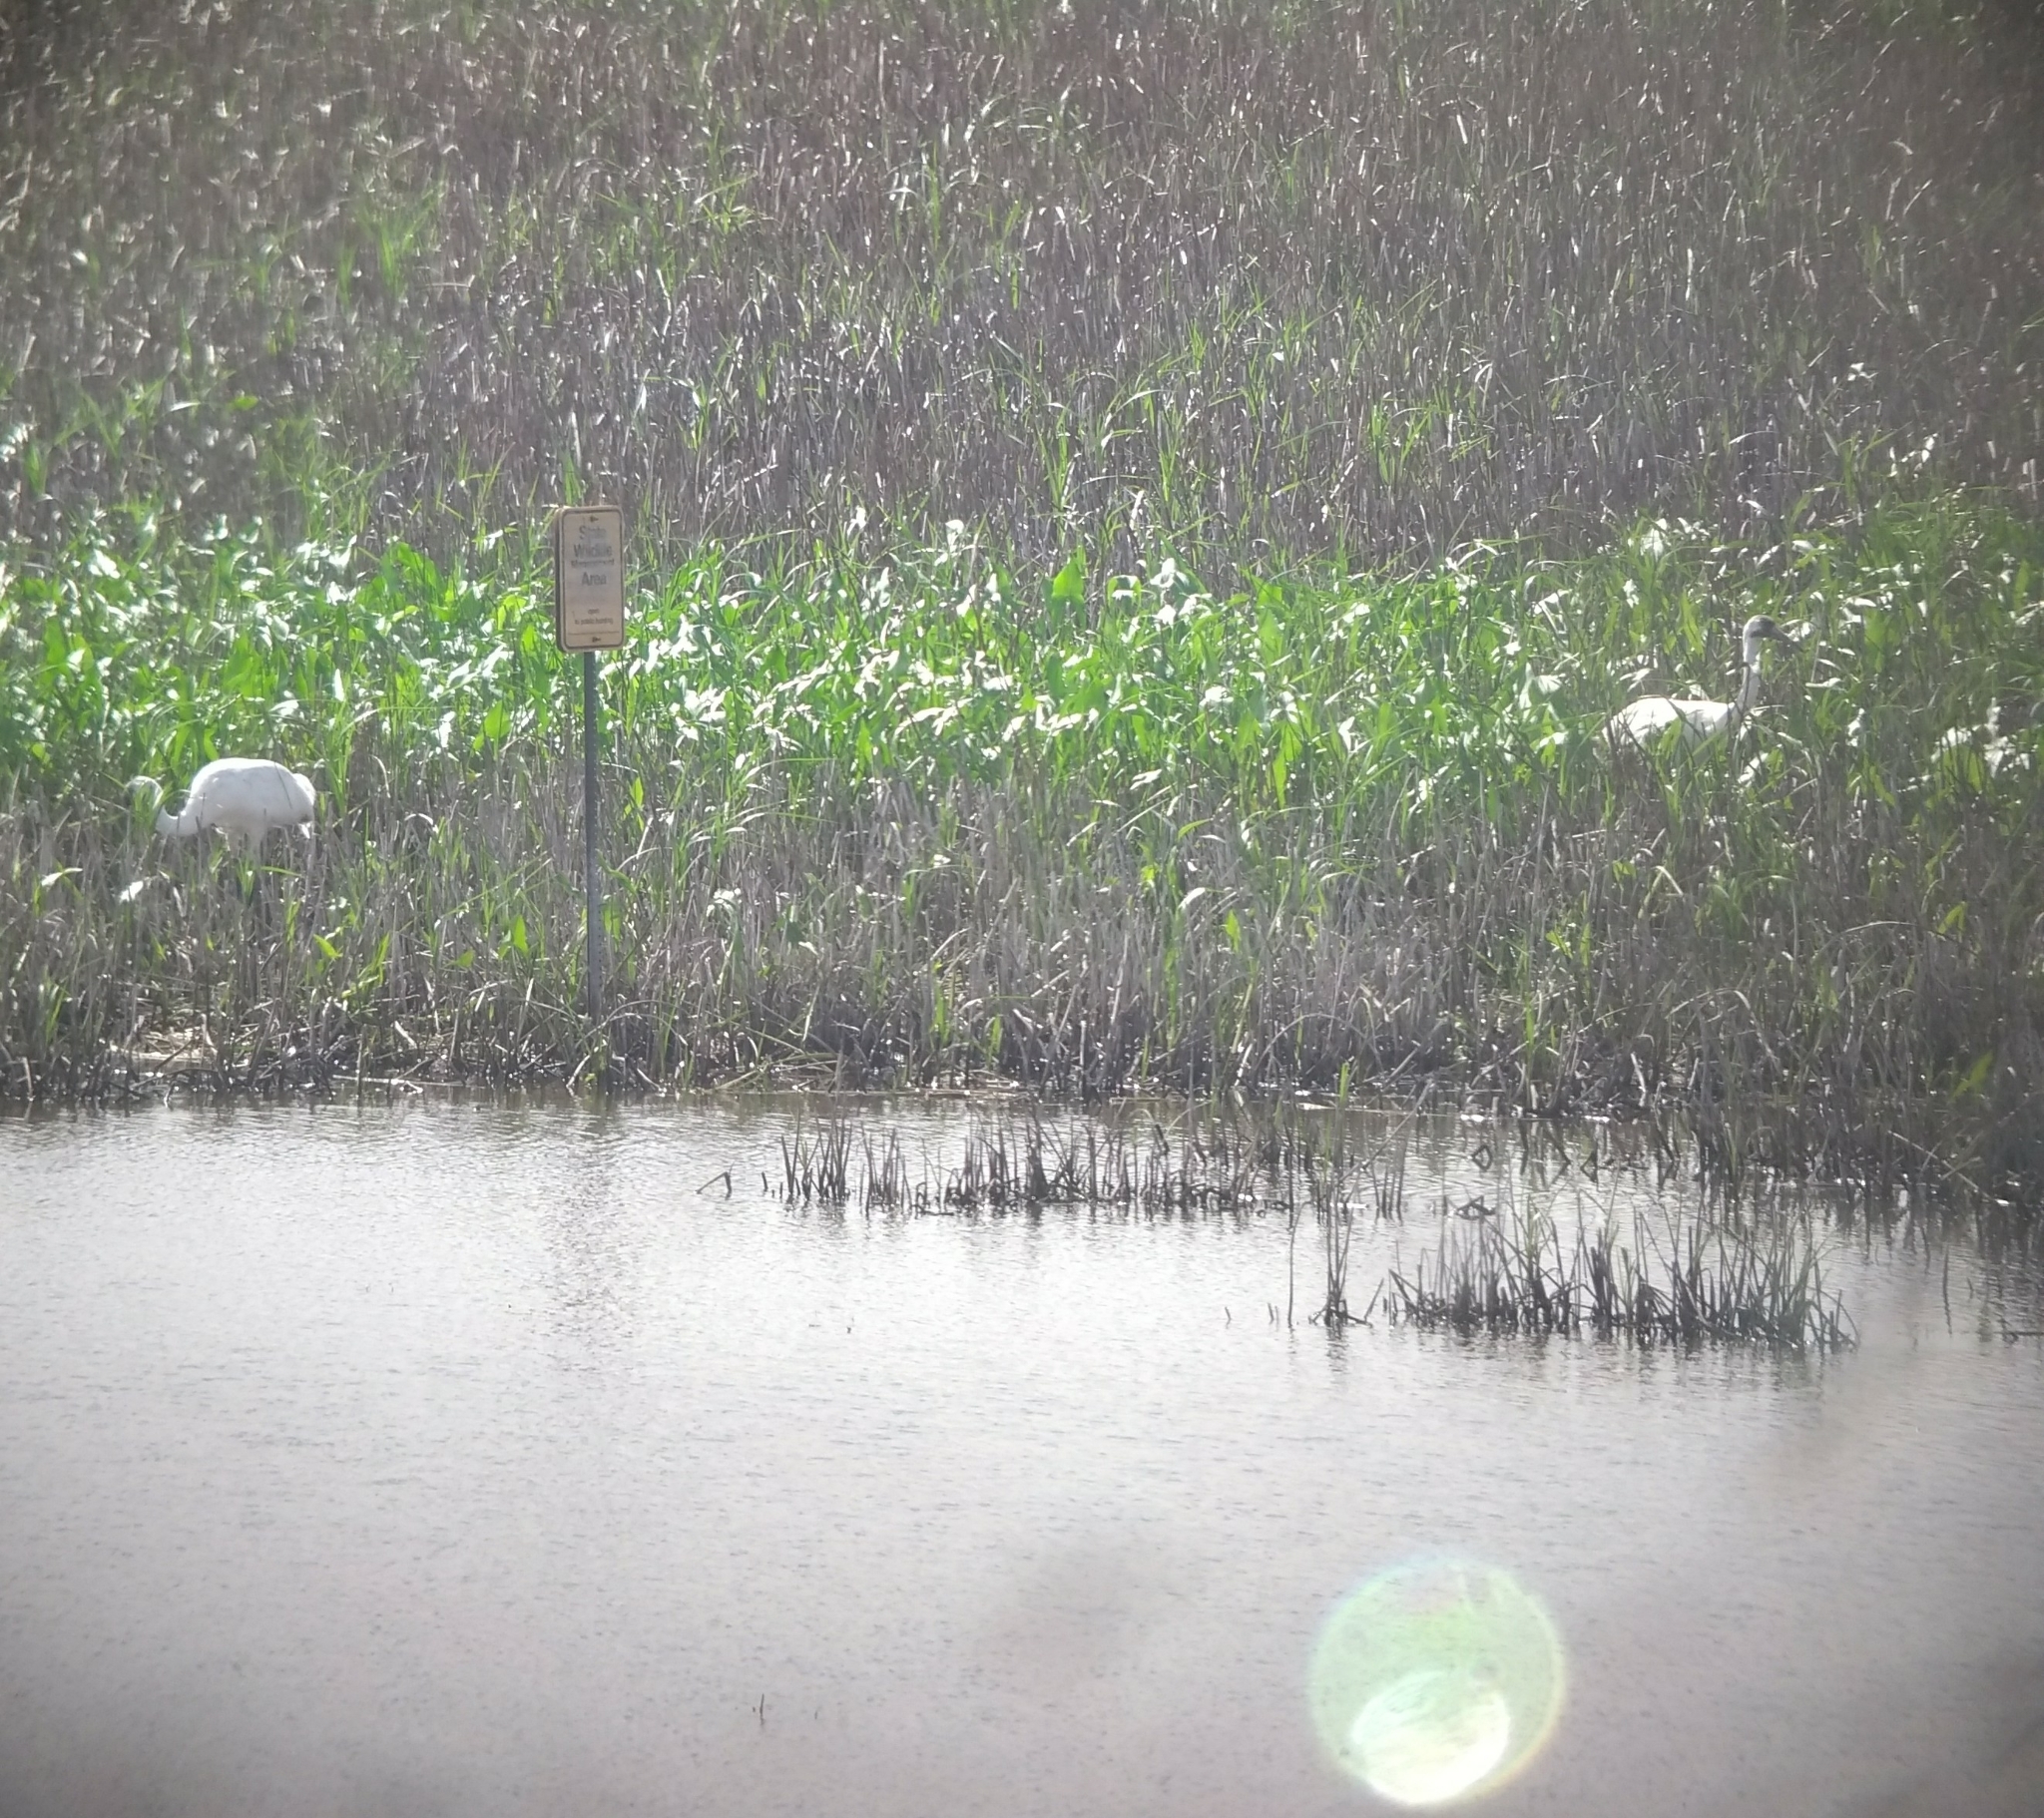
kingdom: Animalia
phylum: Chordata
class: Aves
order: Gruiformes
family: Gruidae
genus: Grus
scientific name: Grus americana
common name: Whooping crane
